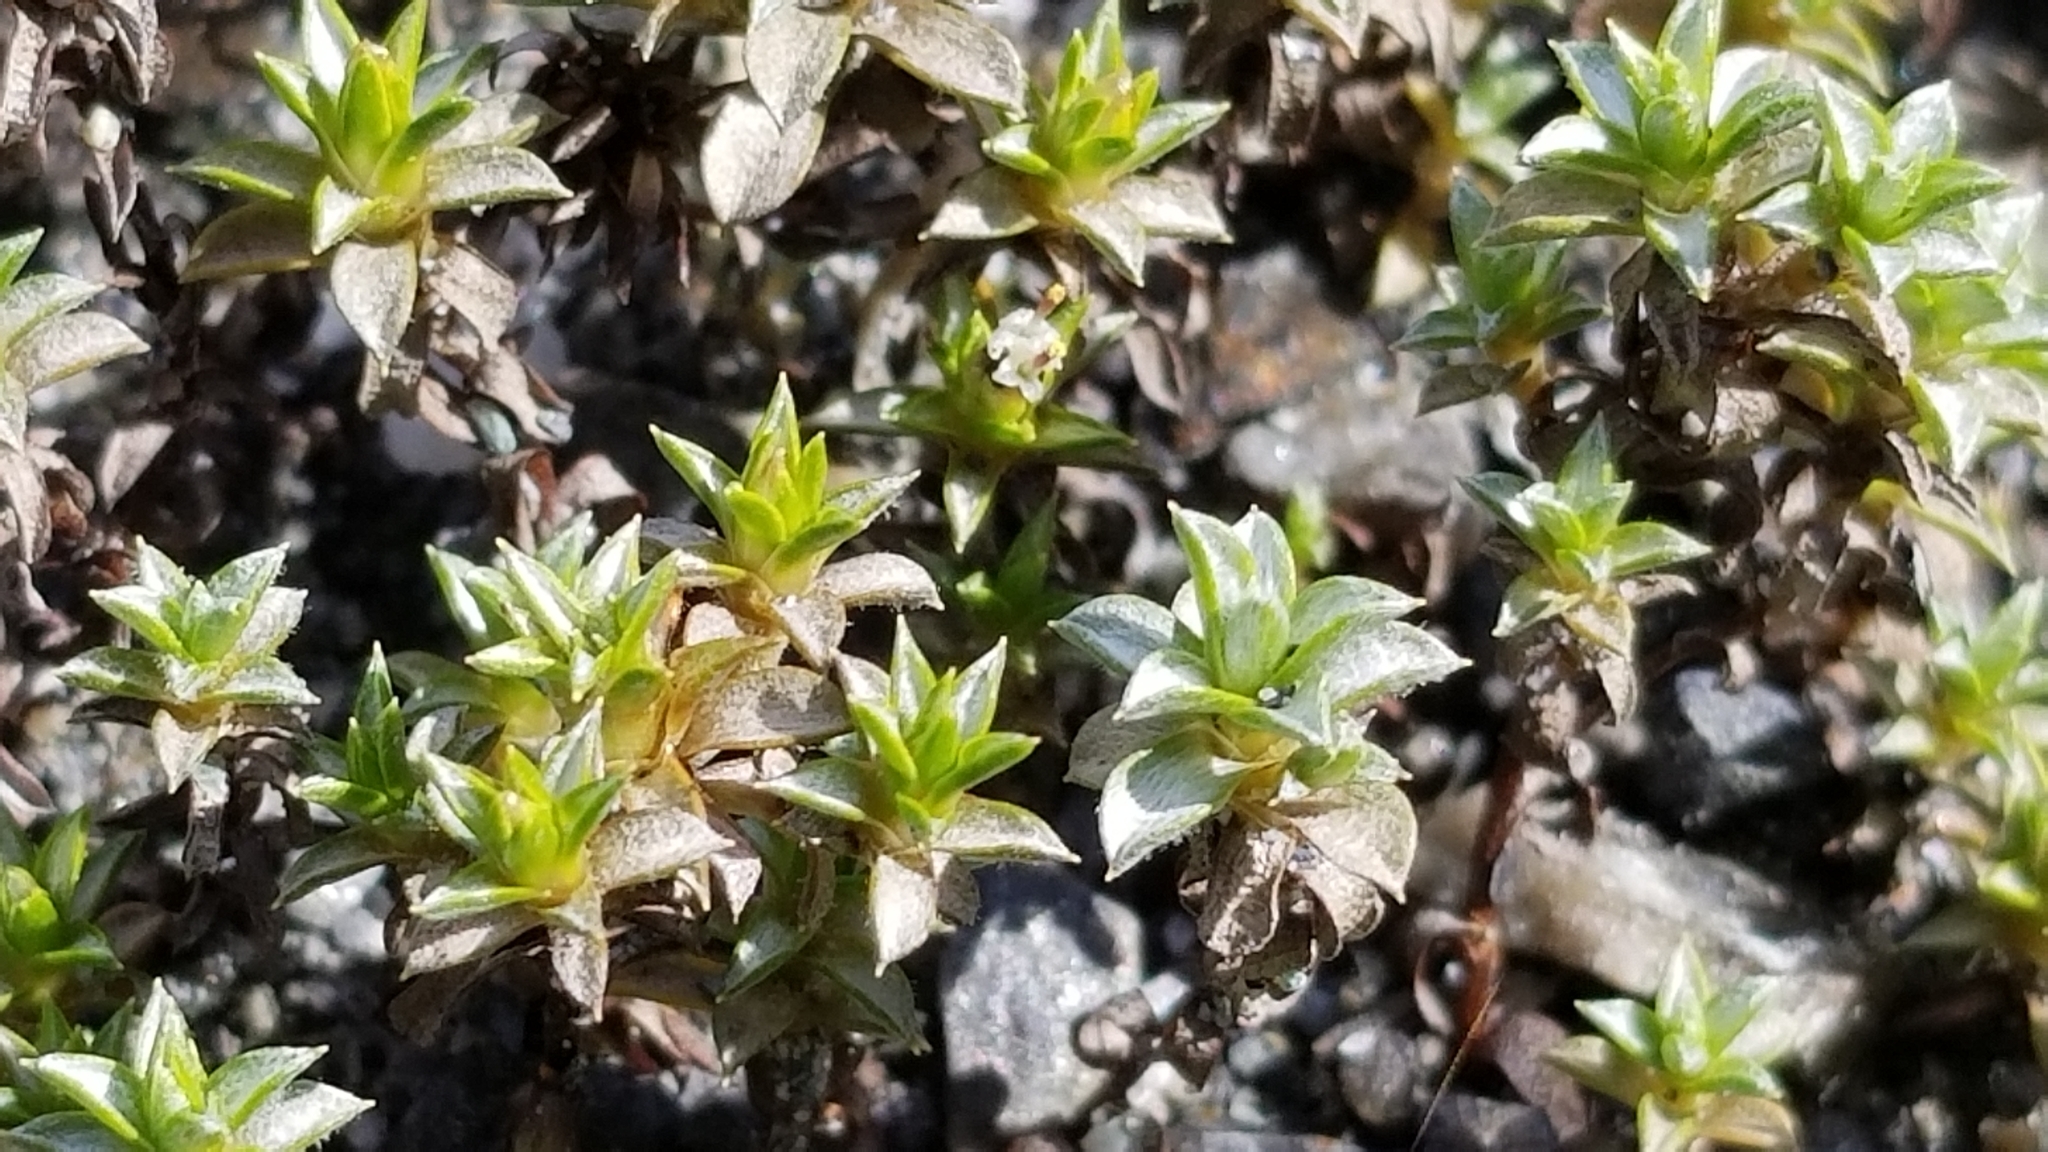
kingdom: Plantae
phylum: Tracheophyta
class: Magnoliopsida
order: Asterales
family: Asteraceae
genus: Raoulia
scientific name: Raoulia tenuicaulis
